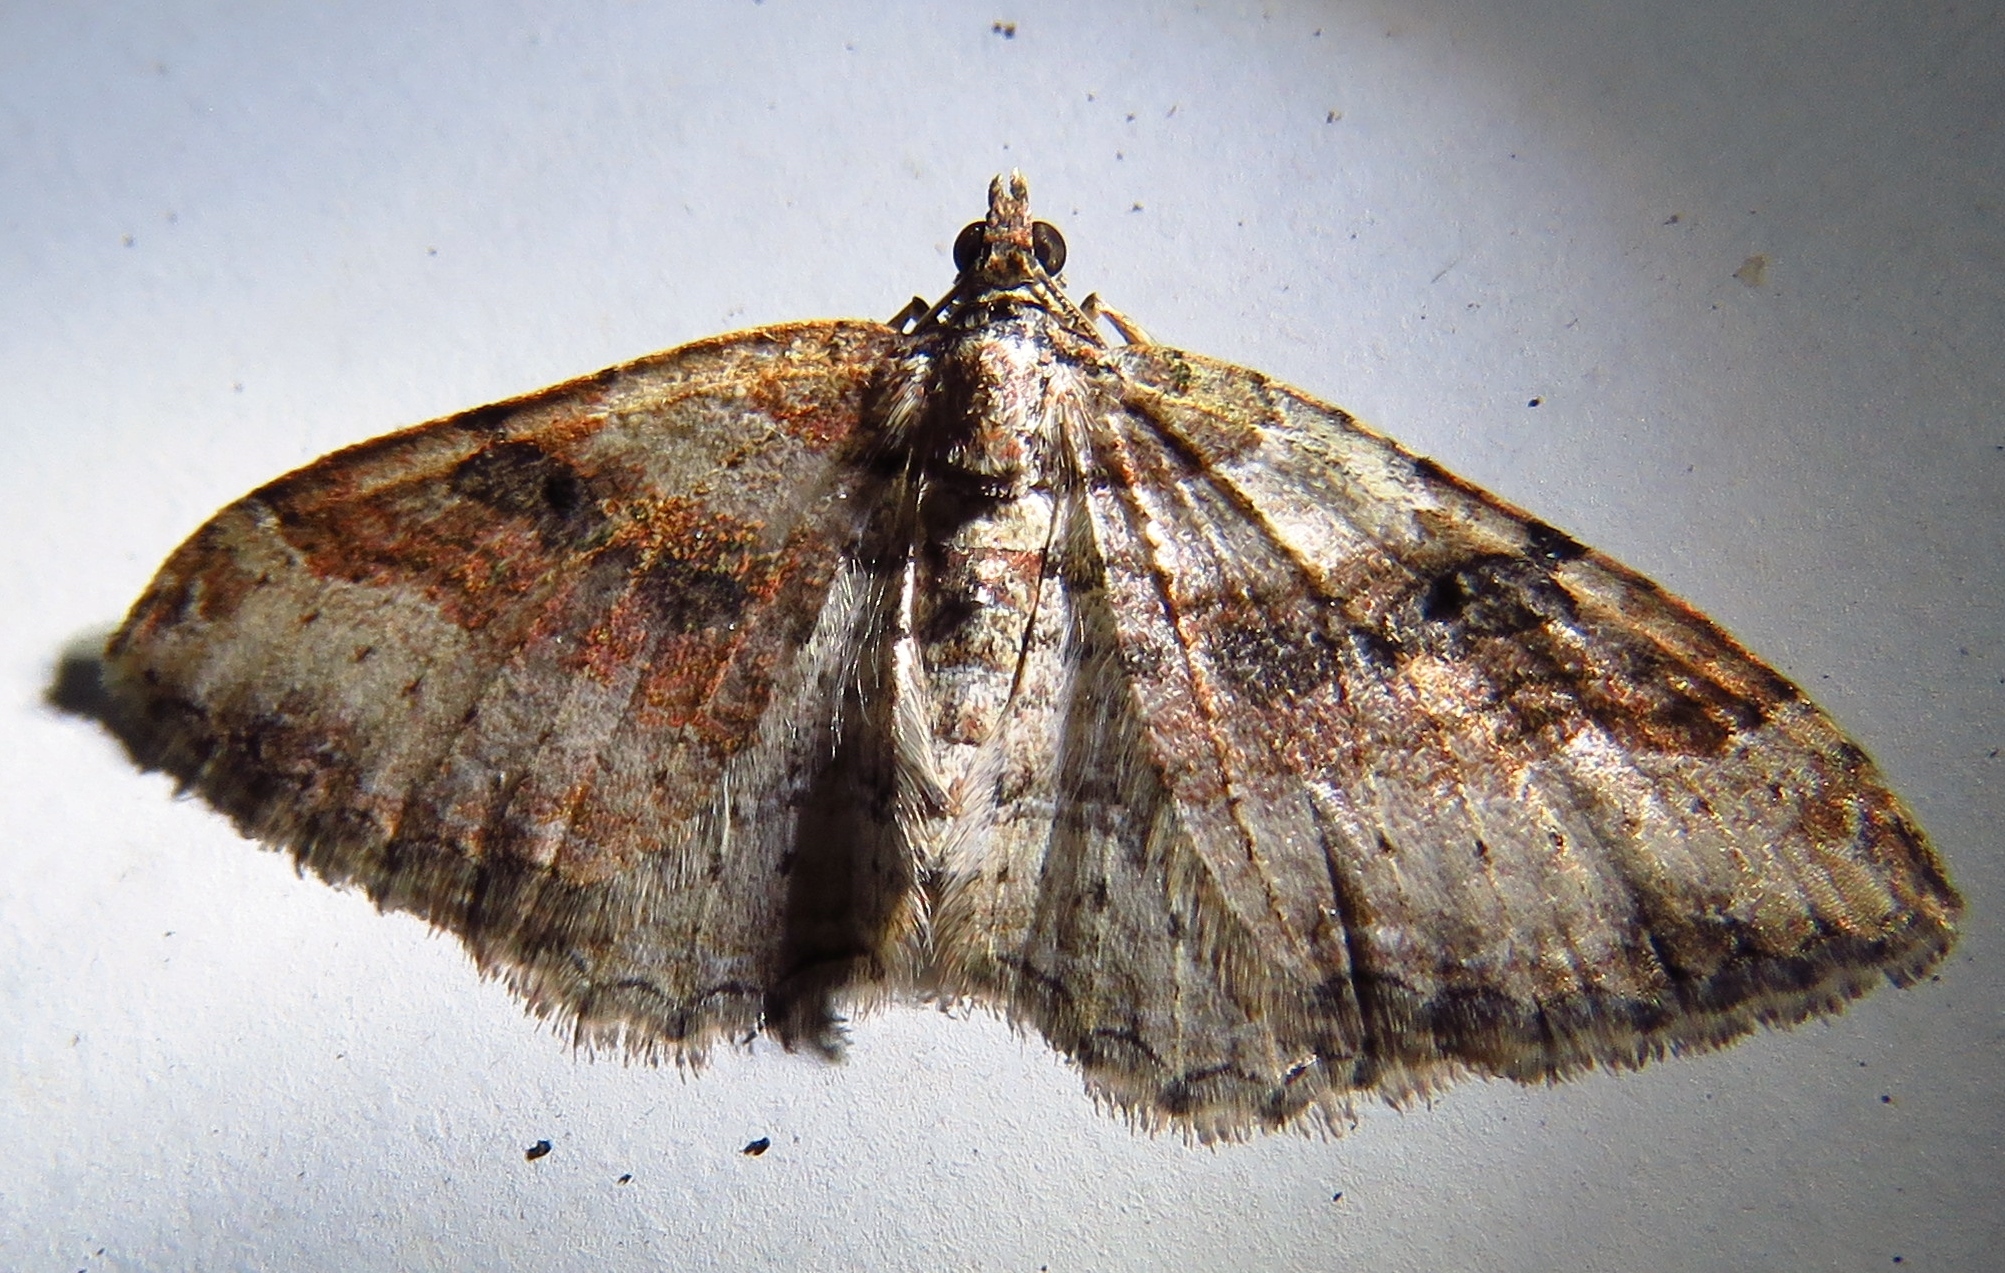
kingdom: Animalia
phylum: Arthropoda
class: Insecta
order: Lepidoptera
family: Geometridae
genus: Costaconvexa
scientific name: Costaconvexa centrostrigaria
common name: Bent-line carpet
